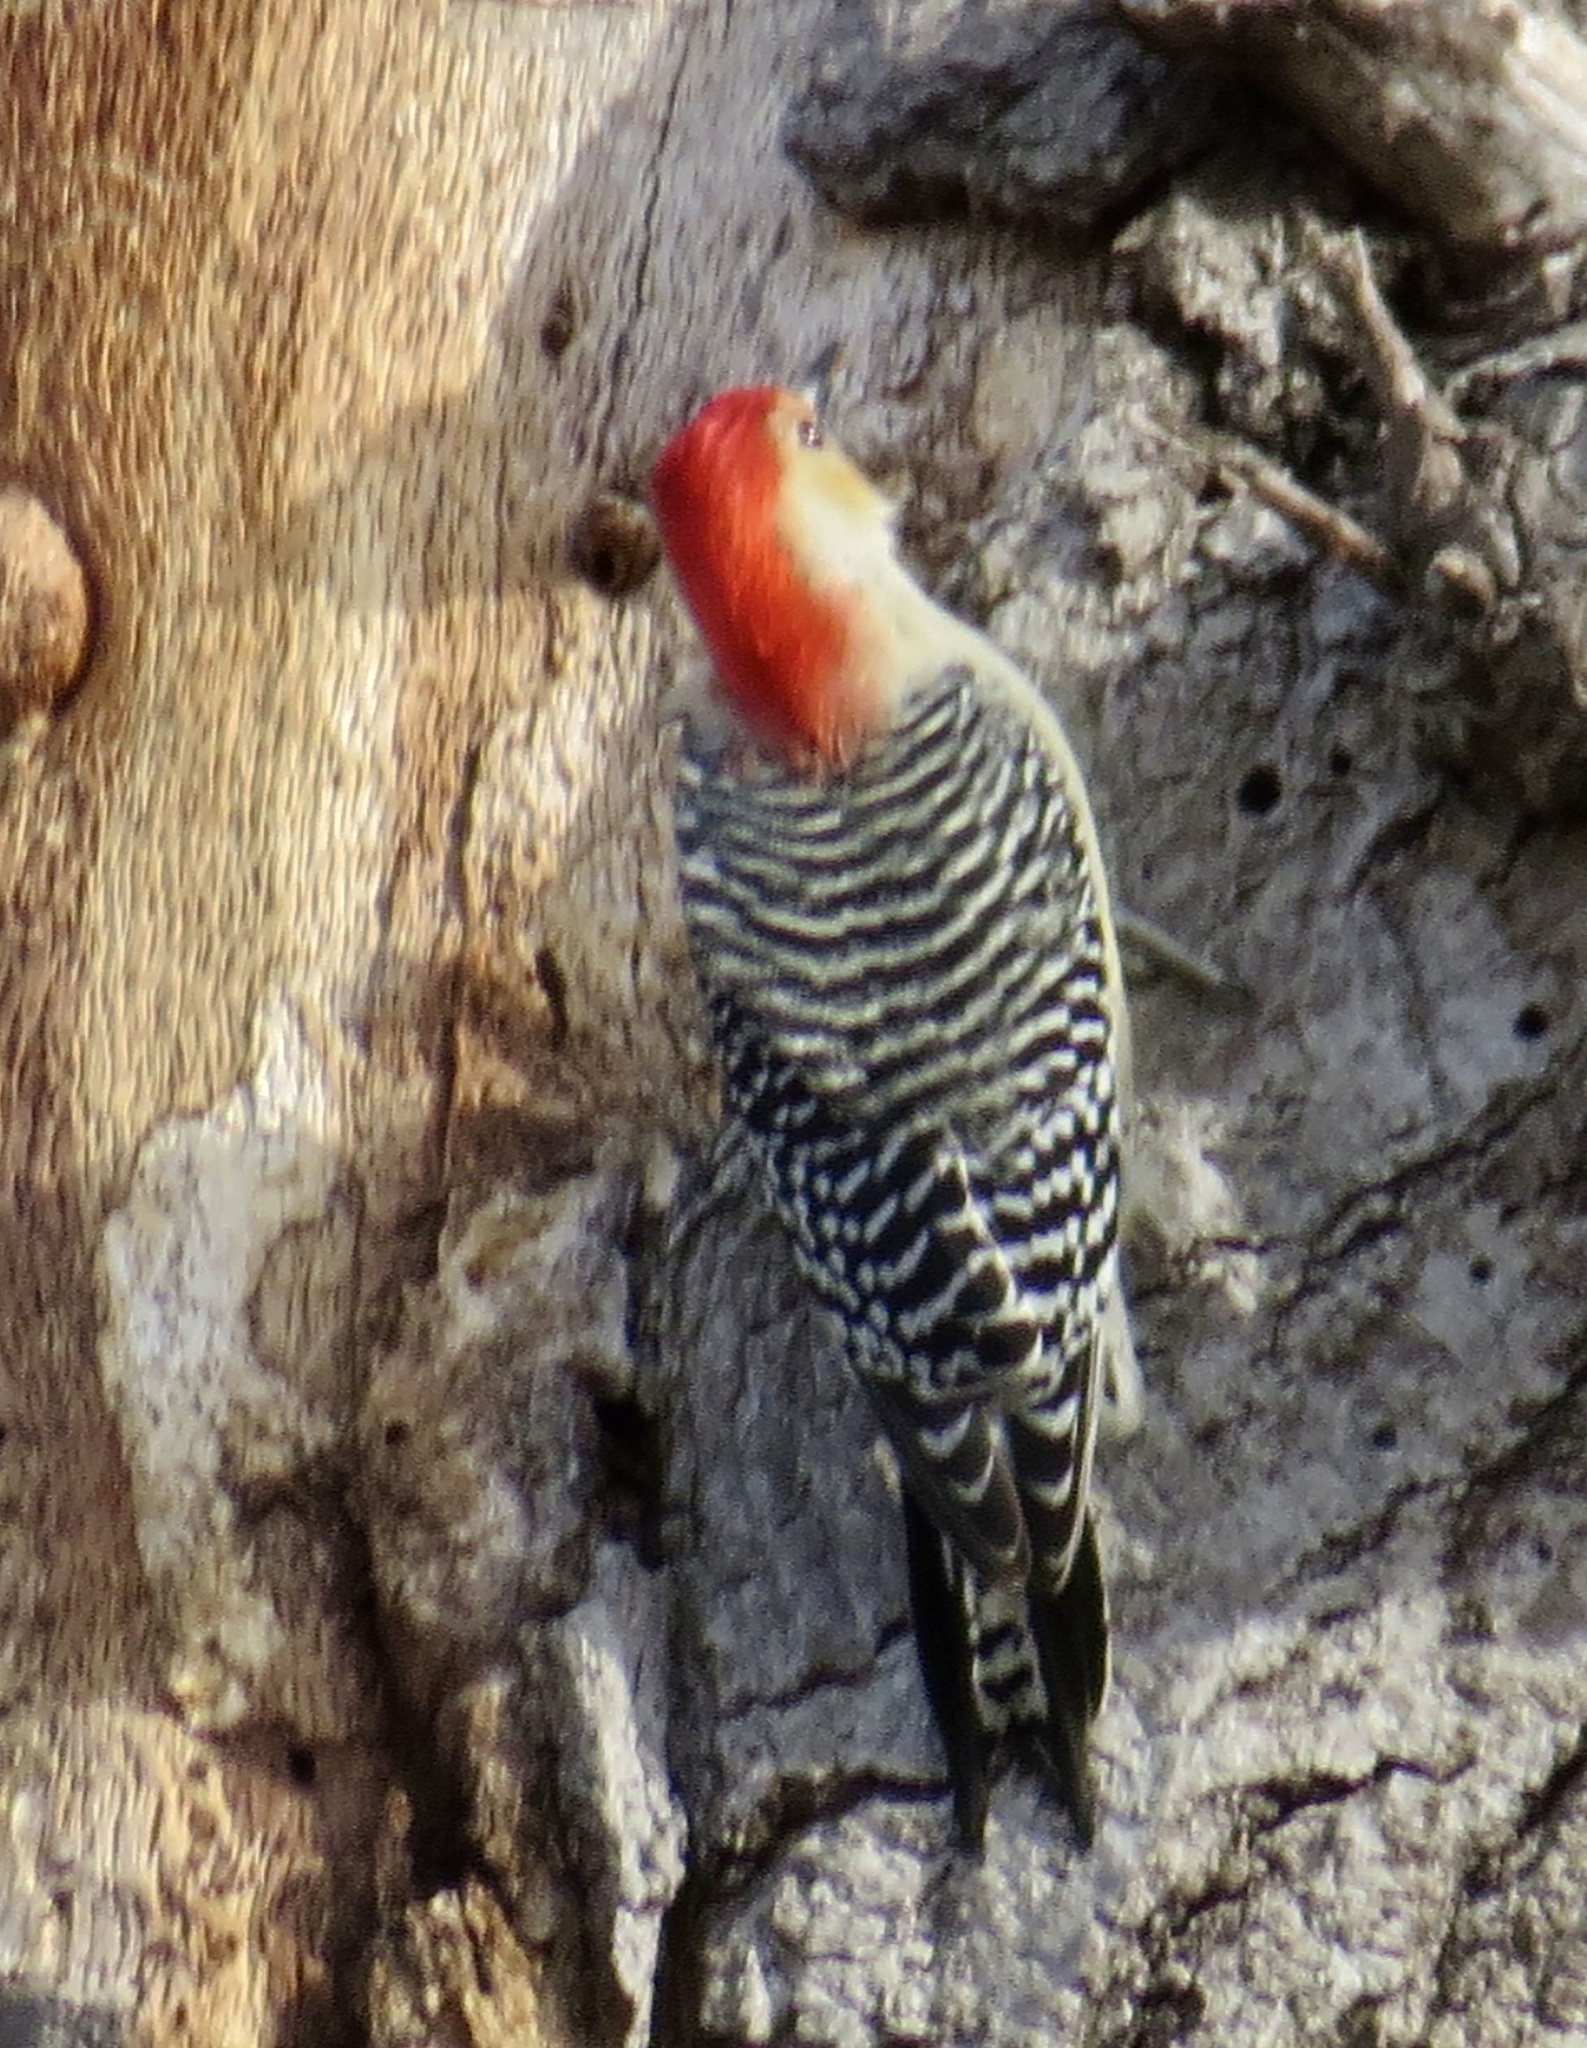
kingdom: Animalia
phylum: Chordata
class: Aves
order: Piciformes
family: Picidae
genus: Melanerpes
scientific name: Melanerpes carolinus
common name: Red-bellied woodpecker
